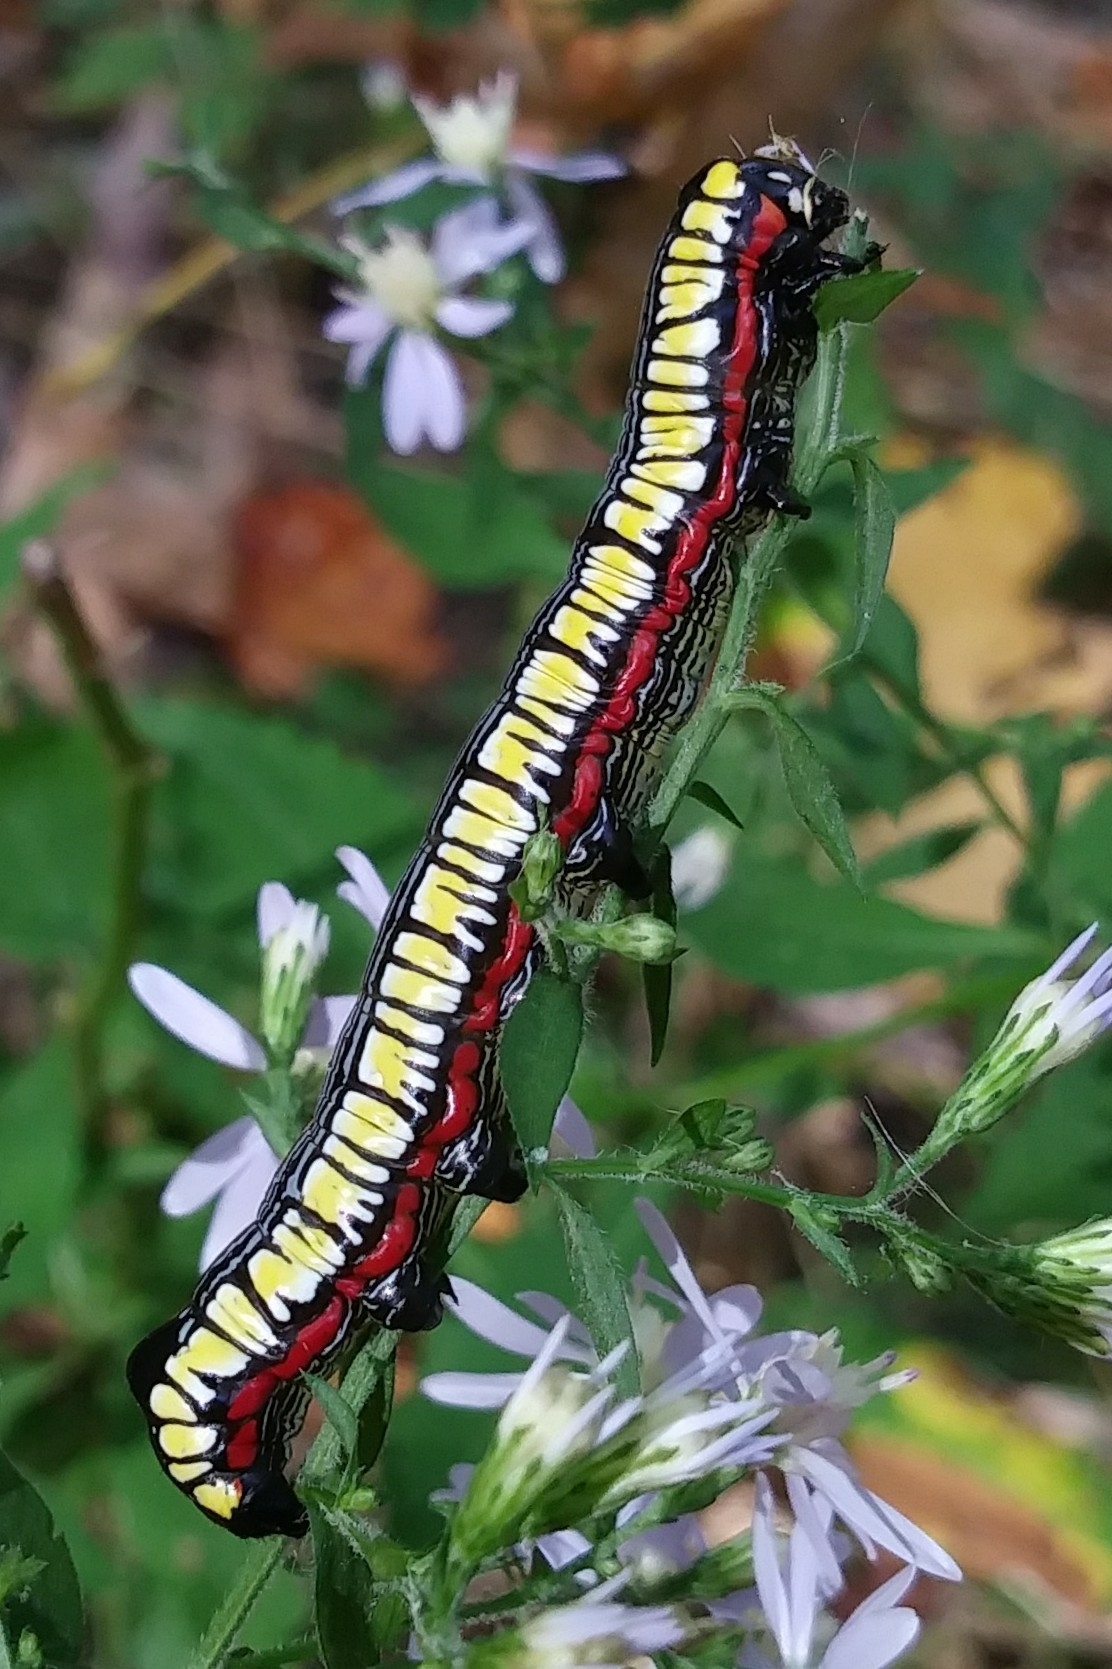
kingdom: Animalia
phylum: Arthropoda
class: Insecta
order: Lepidoptera
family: Noctuidae
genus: Cucullia
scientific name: Cucullia convexipennis
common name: Brown-hooded owlet
